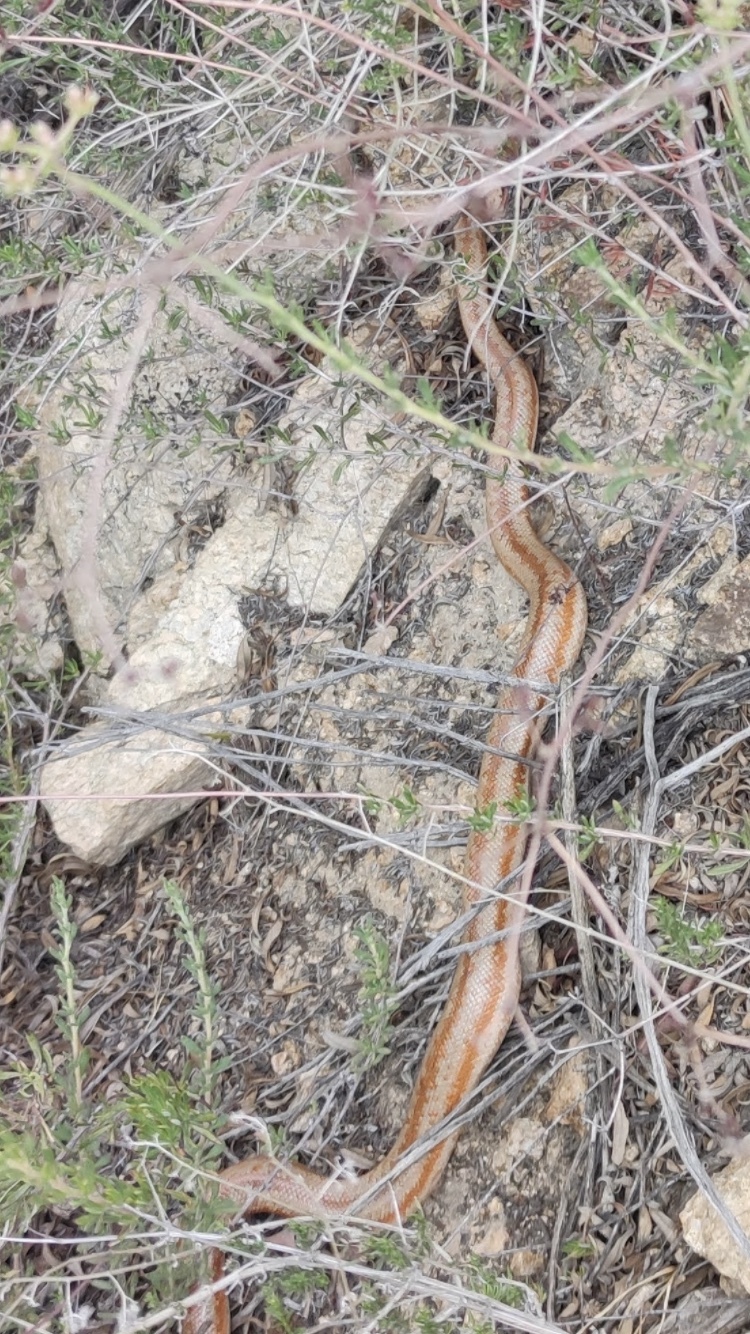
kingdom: Animalia
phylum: Chordata
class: Squamata
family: Boidae
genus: Lichanura
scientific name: Lichanura orcutti
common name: Northern three-lined boa
